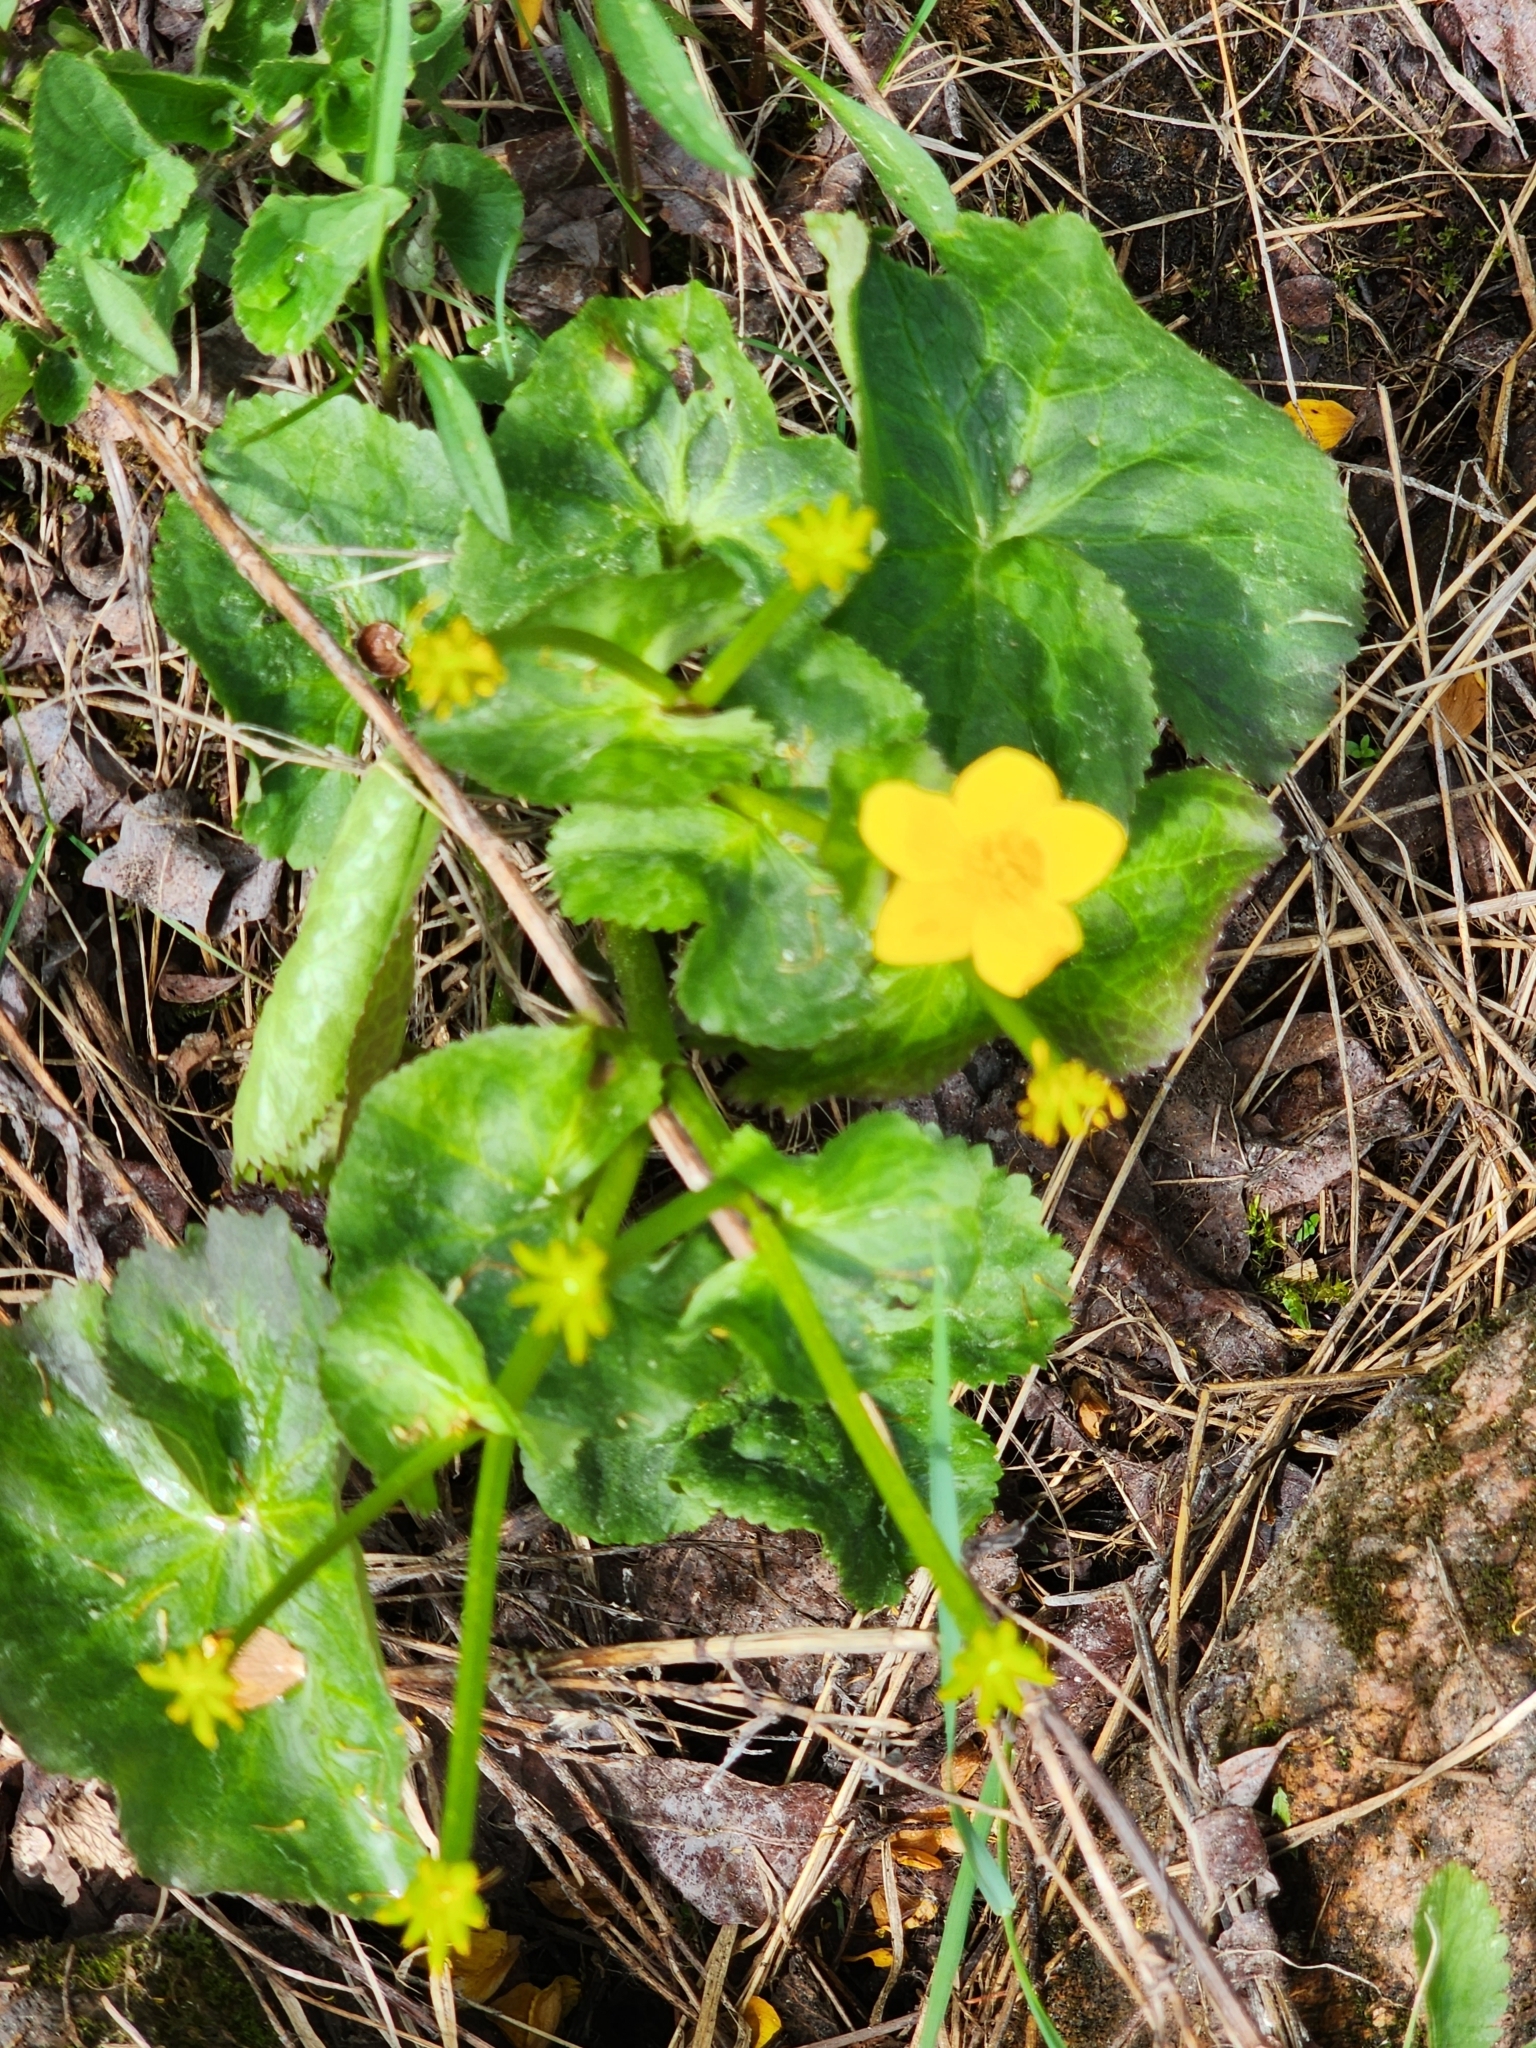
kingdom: Plantae
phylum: Tracheophyta
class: Magnoliopsida
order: Ranunculales
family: Ranunculaceae
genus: Caltha
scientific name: Caltha palustris
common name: Marsh marigold
